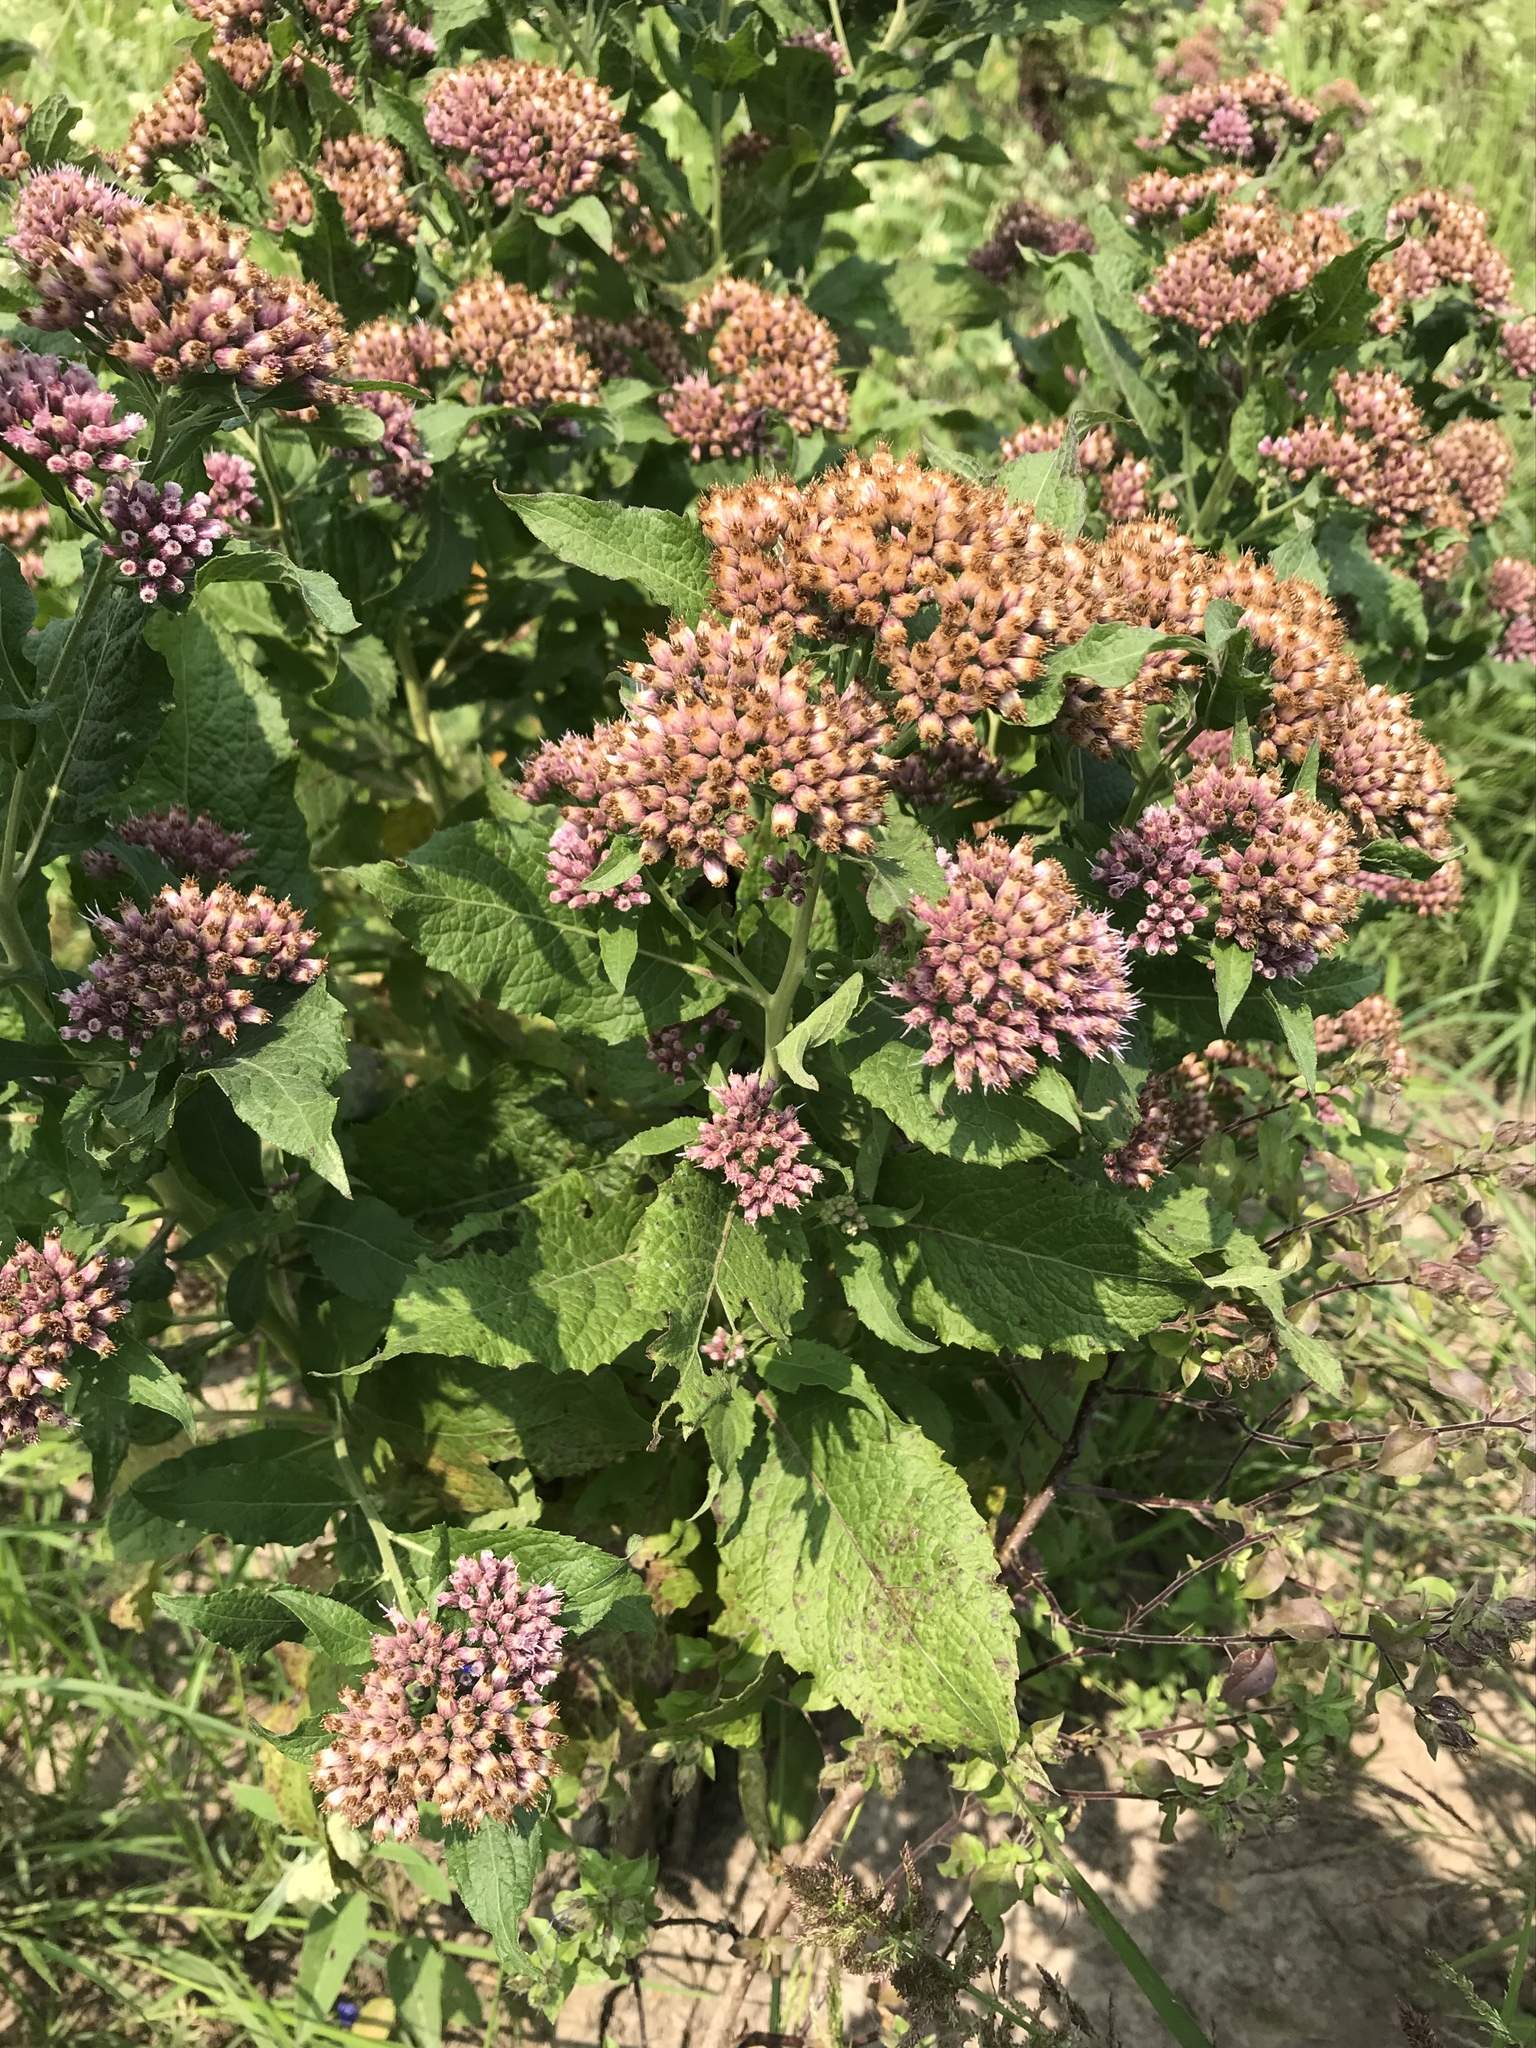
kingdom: Plantae
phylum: Tracheophyta
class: Magnoliopsida
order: Asterales
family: Asteraceae
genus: Pluchea
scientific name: Pluchea camphorata
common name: Camphor pluchea
